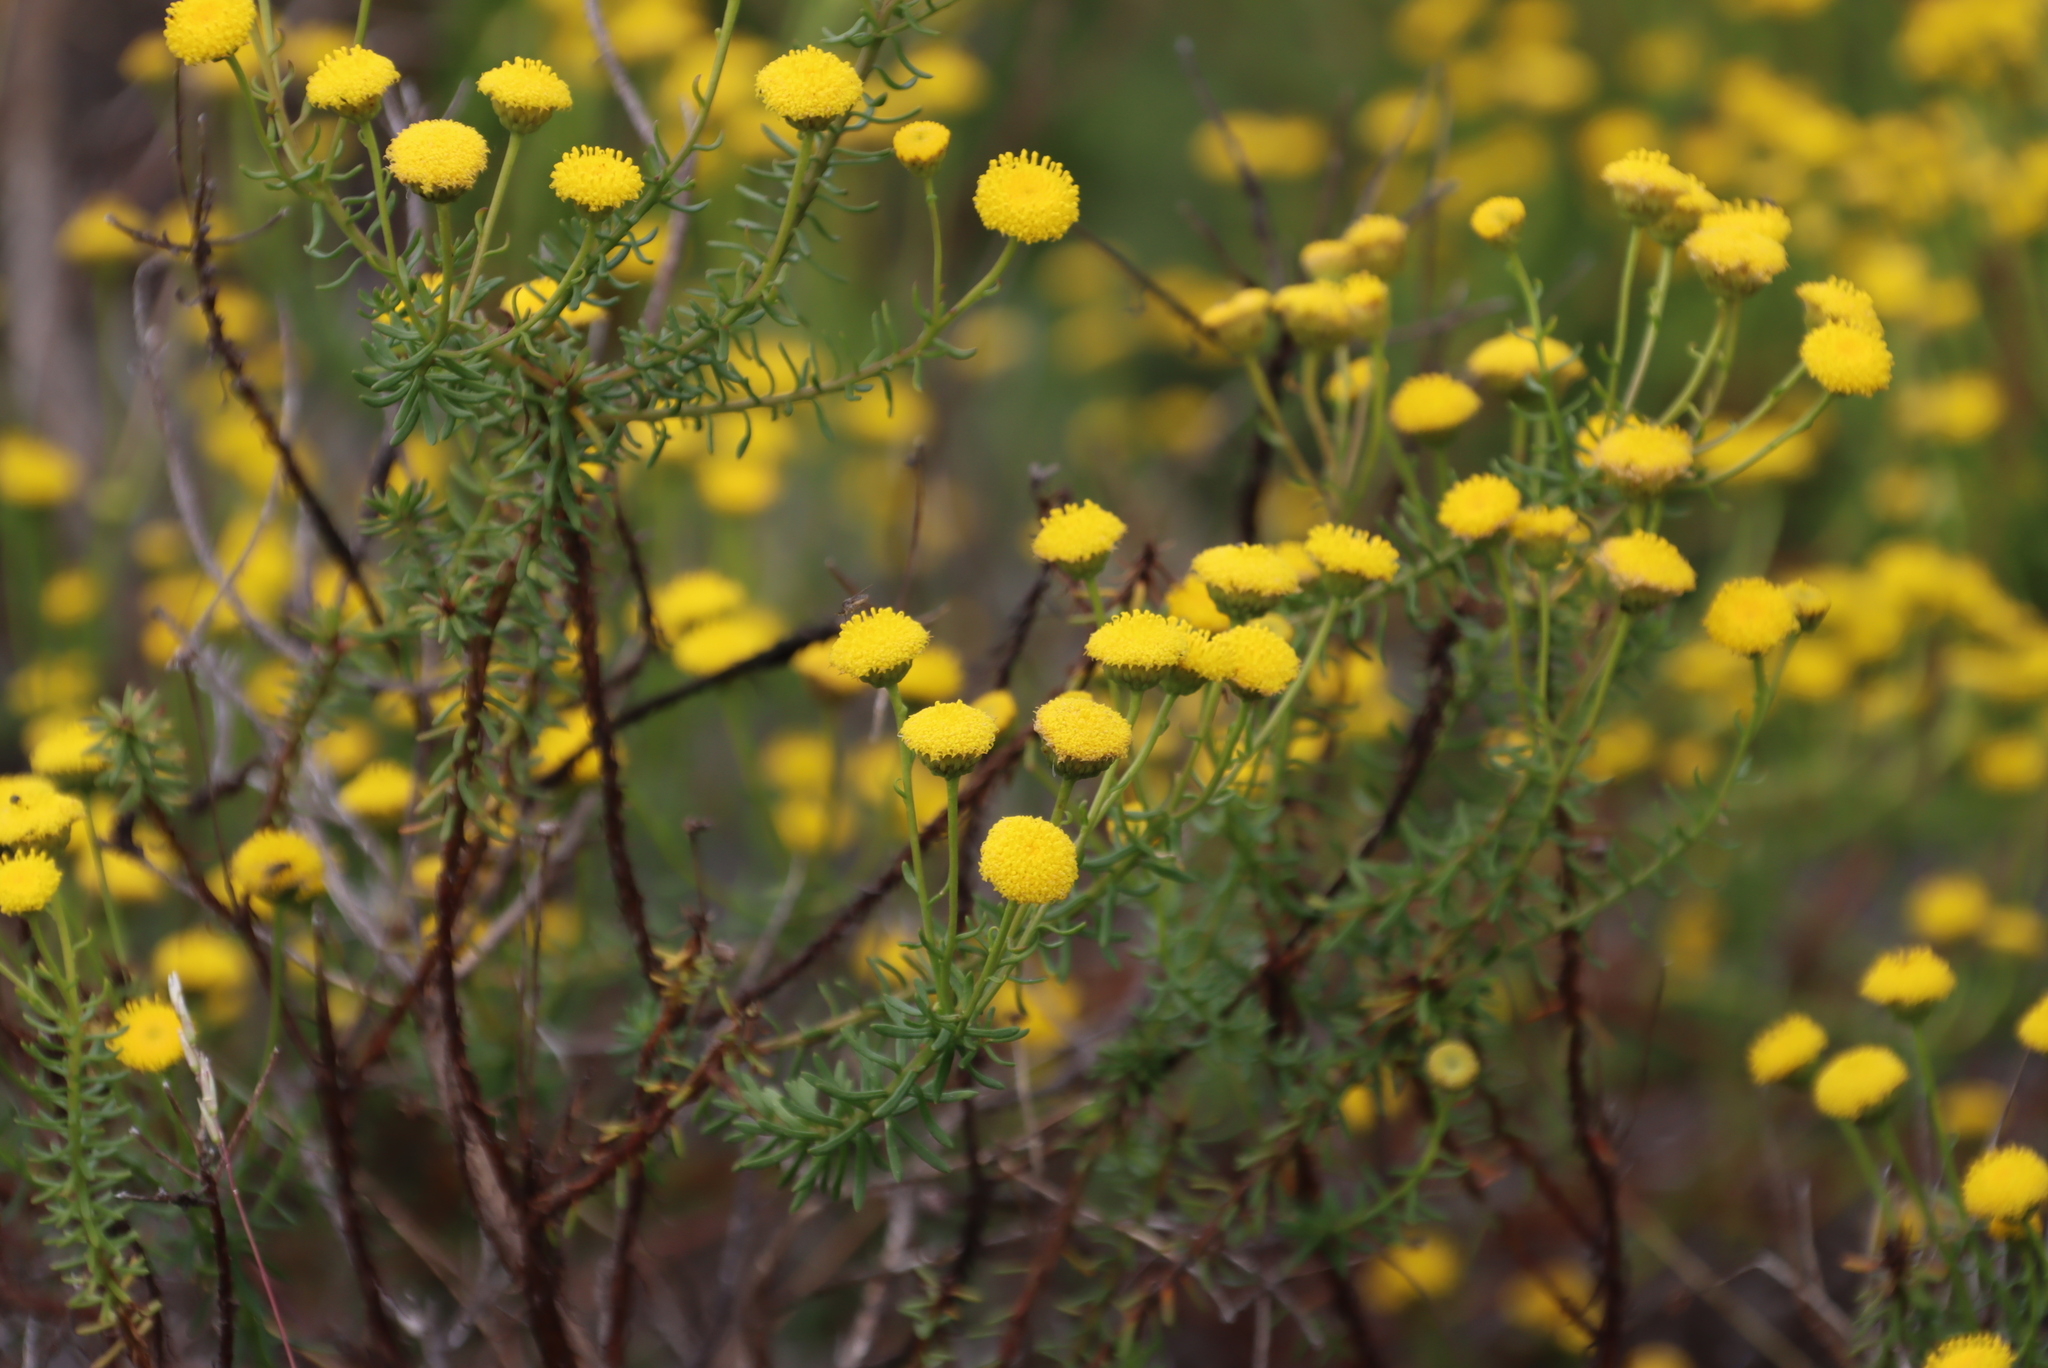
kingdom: Plantae
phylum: Tracheophyta
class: Magnoliopsida
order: Asterales
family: Asteraceae
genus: Chrysocoma
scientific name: Chrysocoma cernua
